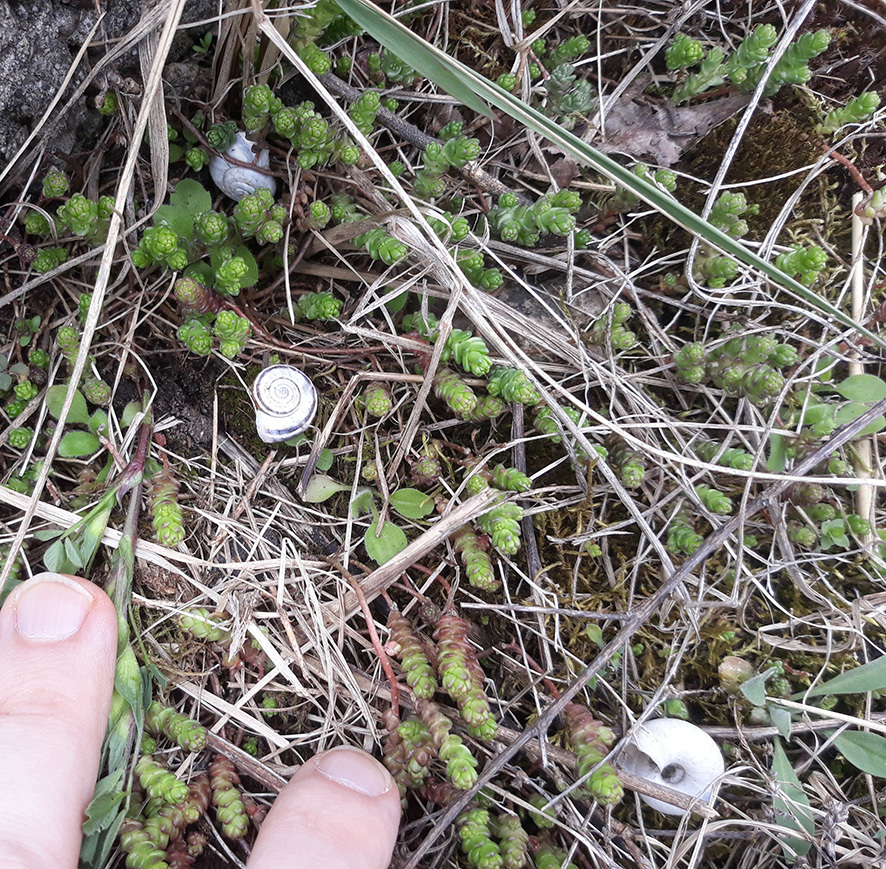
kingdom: Animalia
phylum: Mollusca
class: Gastropoda
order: Stylommatophora
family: Geomitridae
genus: Xerolenta
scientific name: Xerolenta obvia
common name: White heath snail
